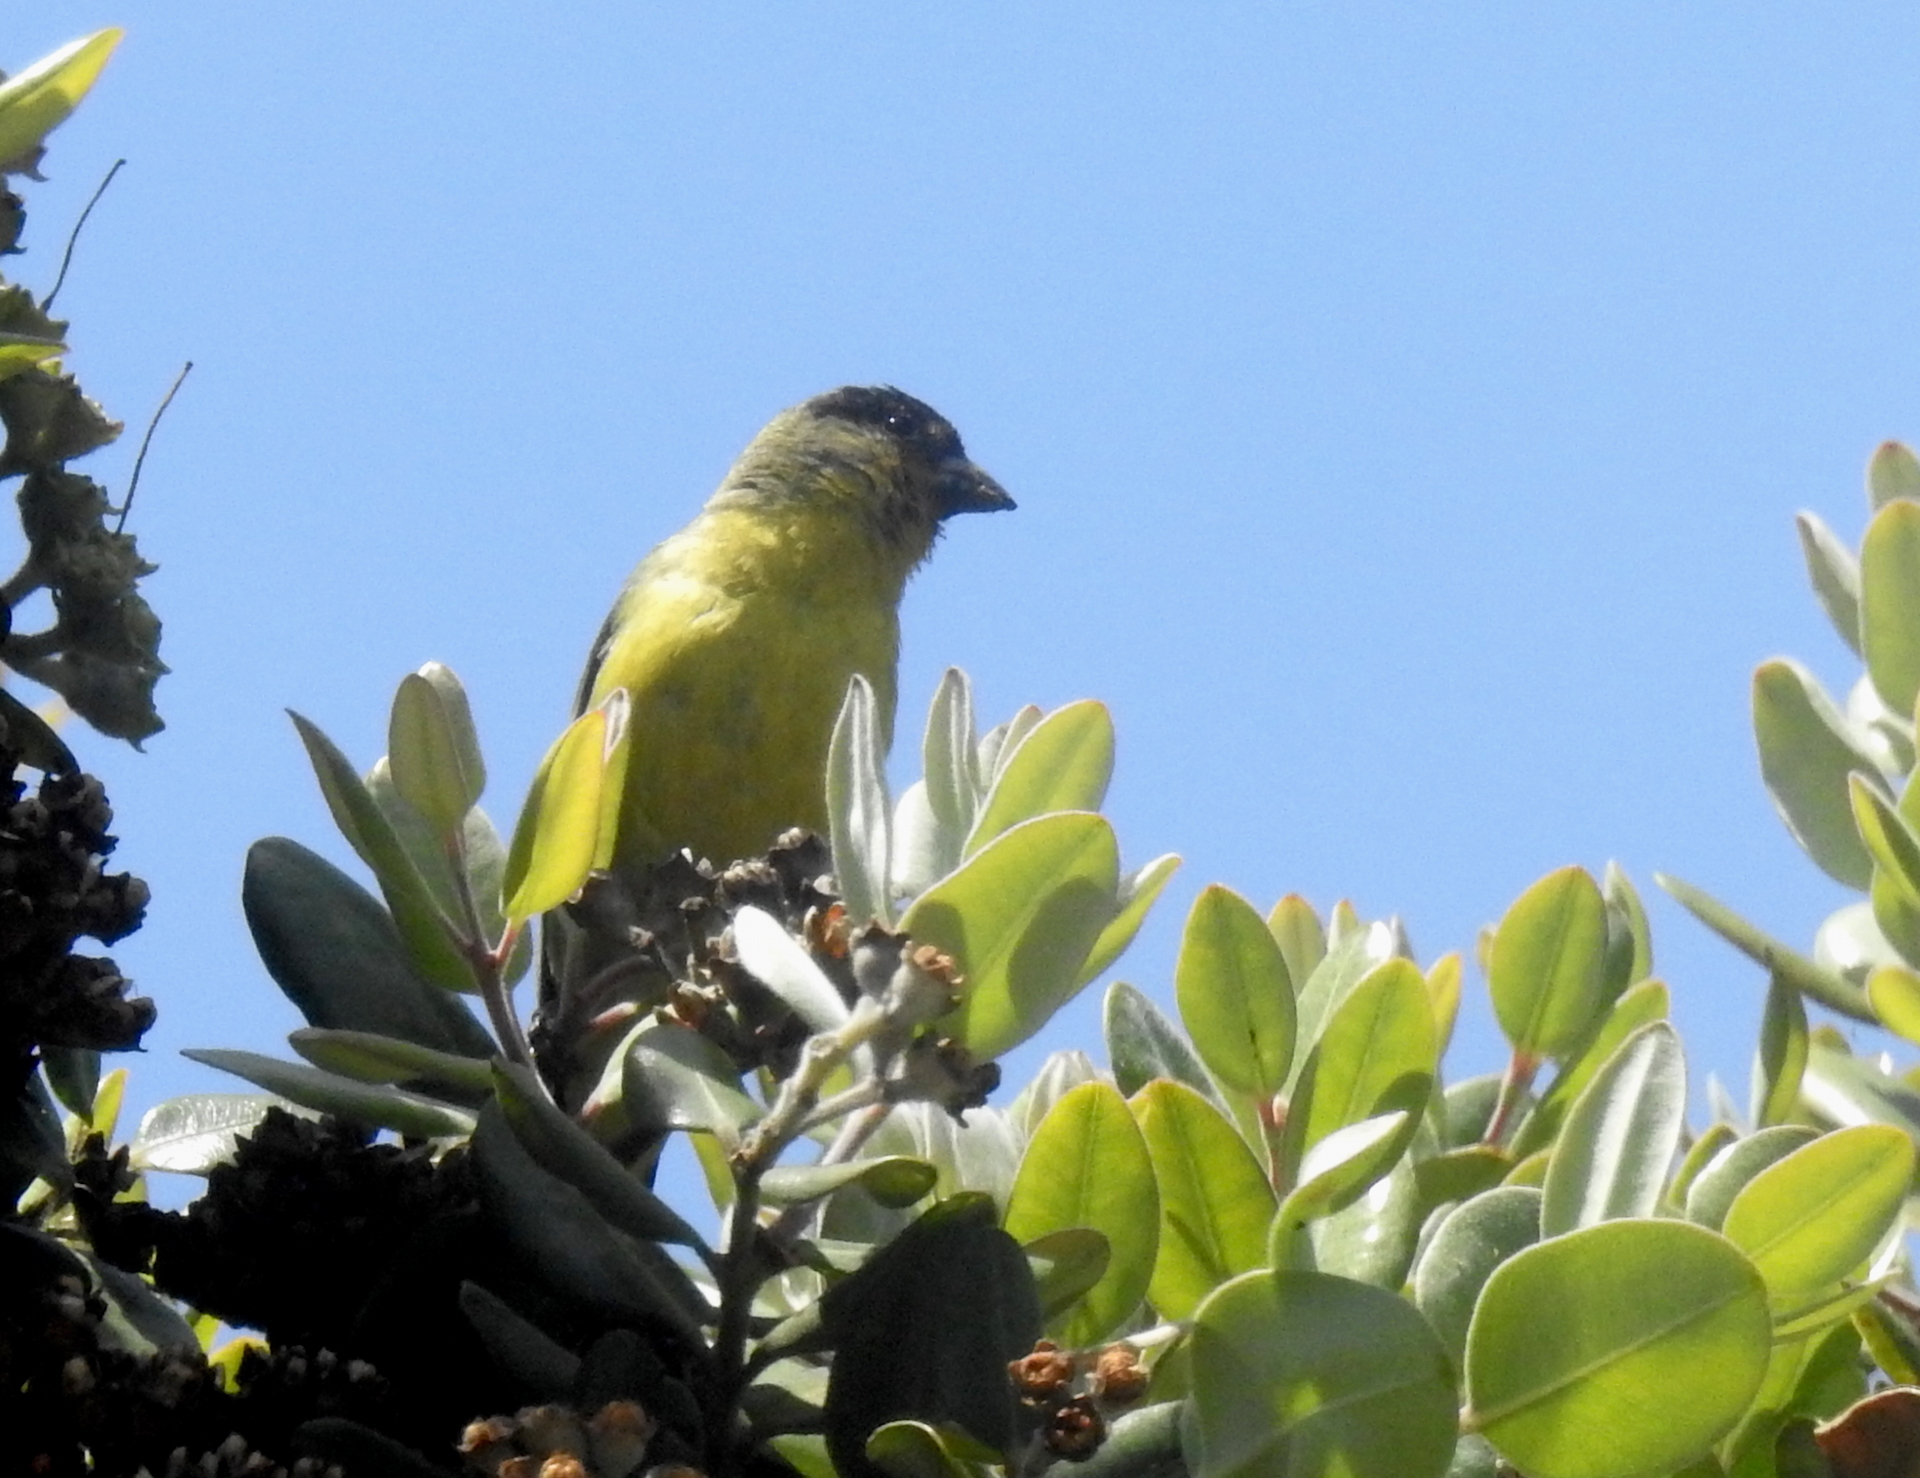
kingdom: Animalia
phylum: Chordata
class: Aves
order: Passeriformes
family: Fringillidae
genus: Spinus
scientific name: Spinus psaltria
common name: Lesser goldfinch
